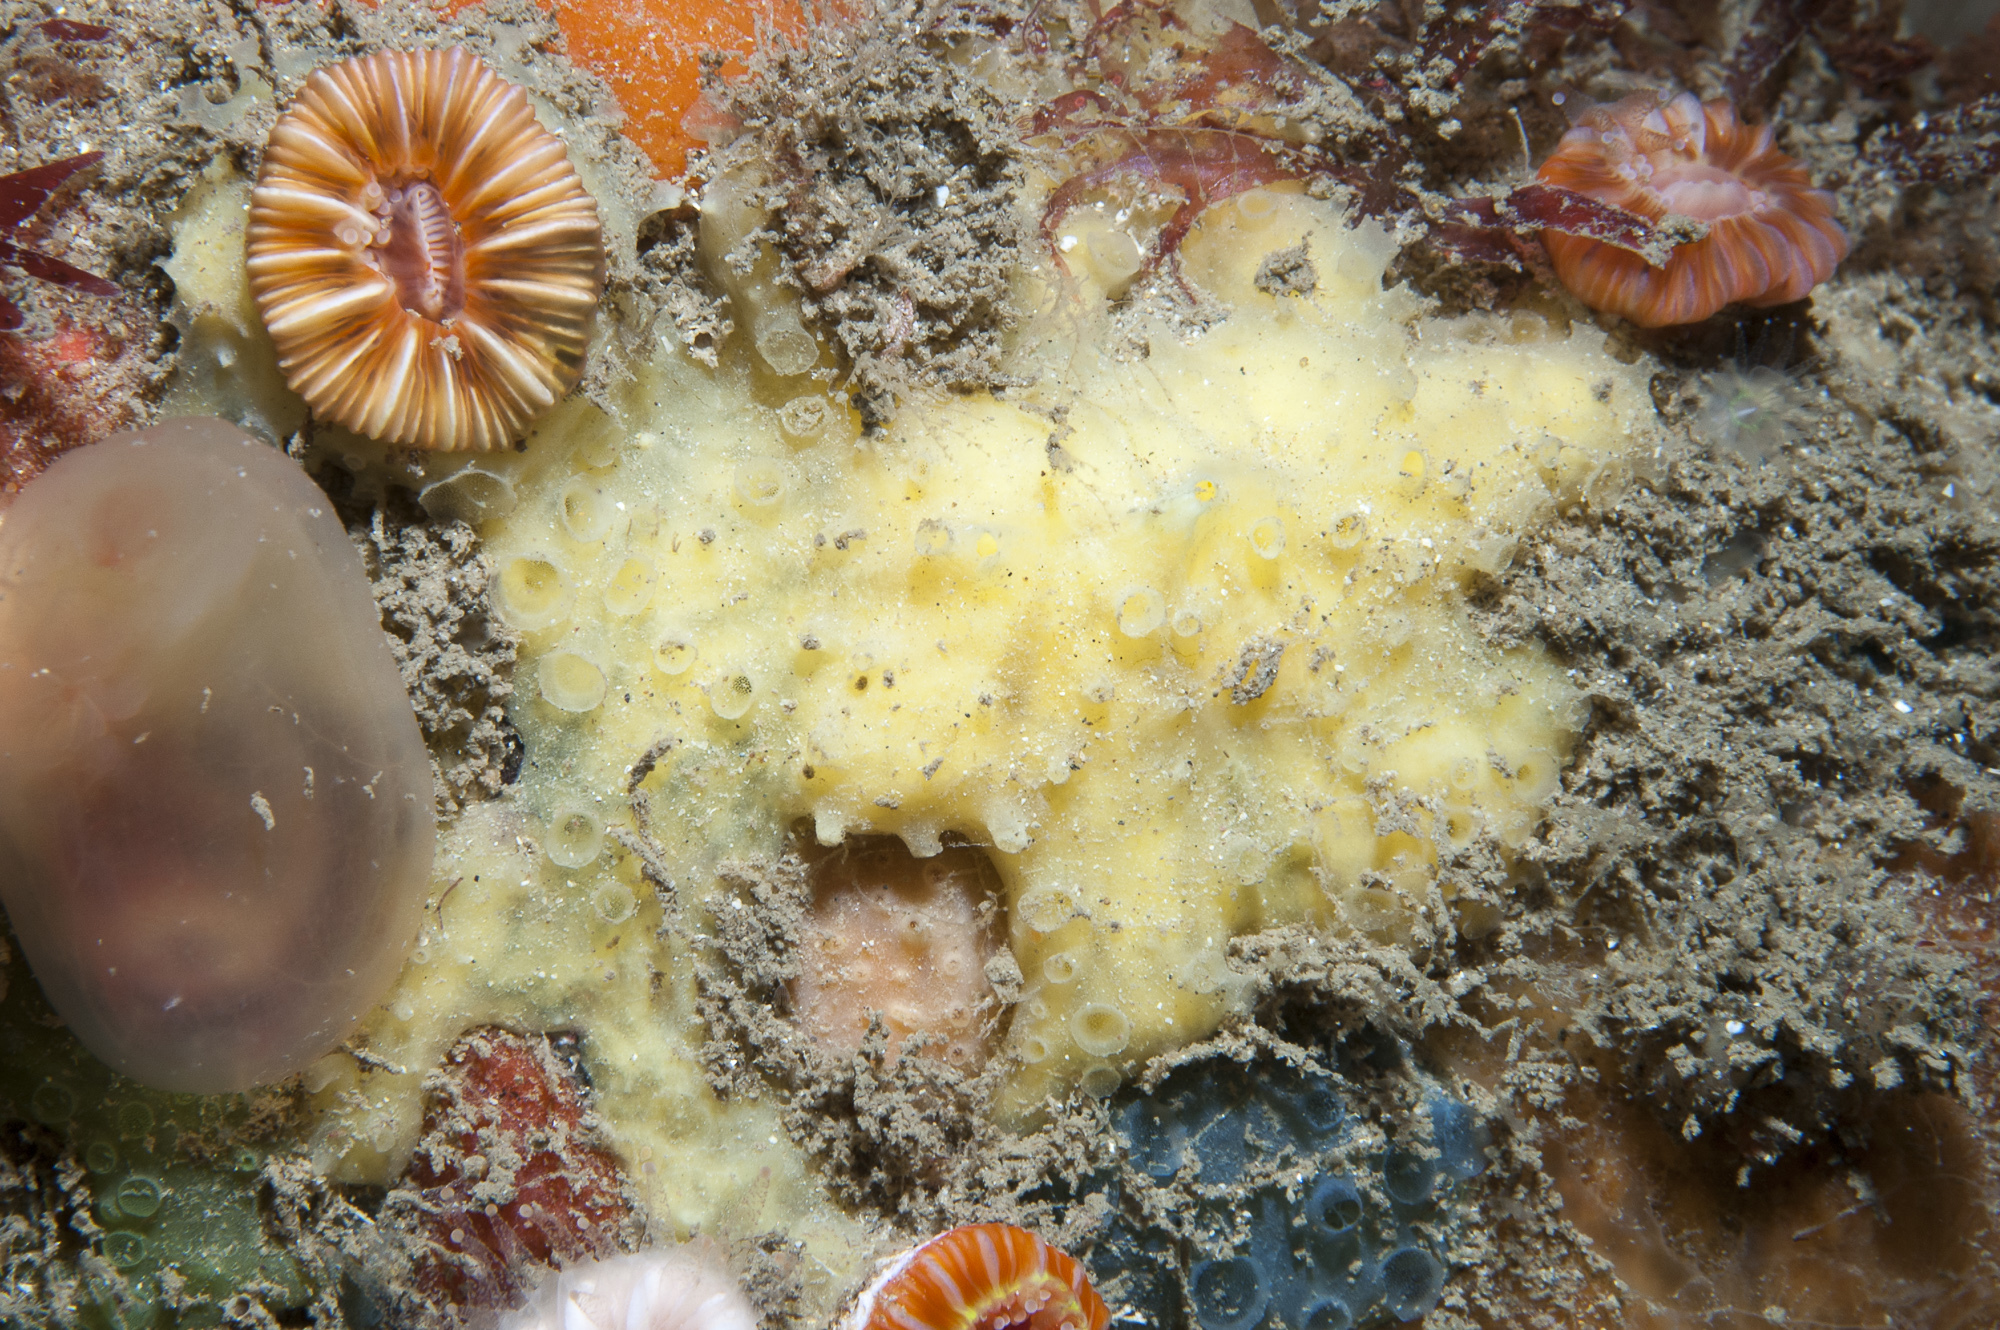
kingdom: Animalia
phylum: Porifera
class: Demospongiae
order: Poecilosclerida
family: Coelosphaeridae
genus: Lissodendoryx
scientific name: Lissodendoryx jenjonesae
